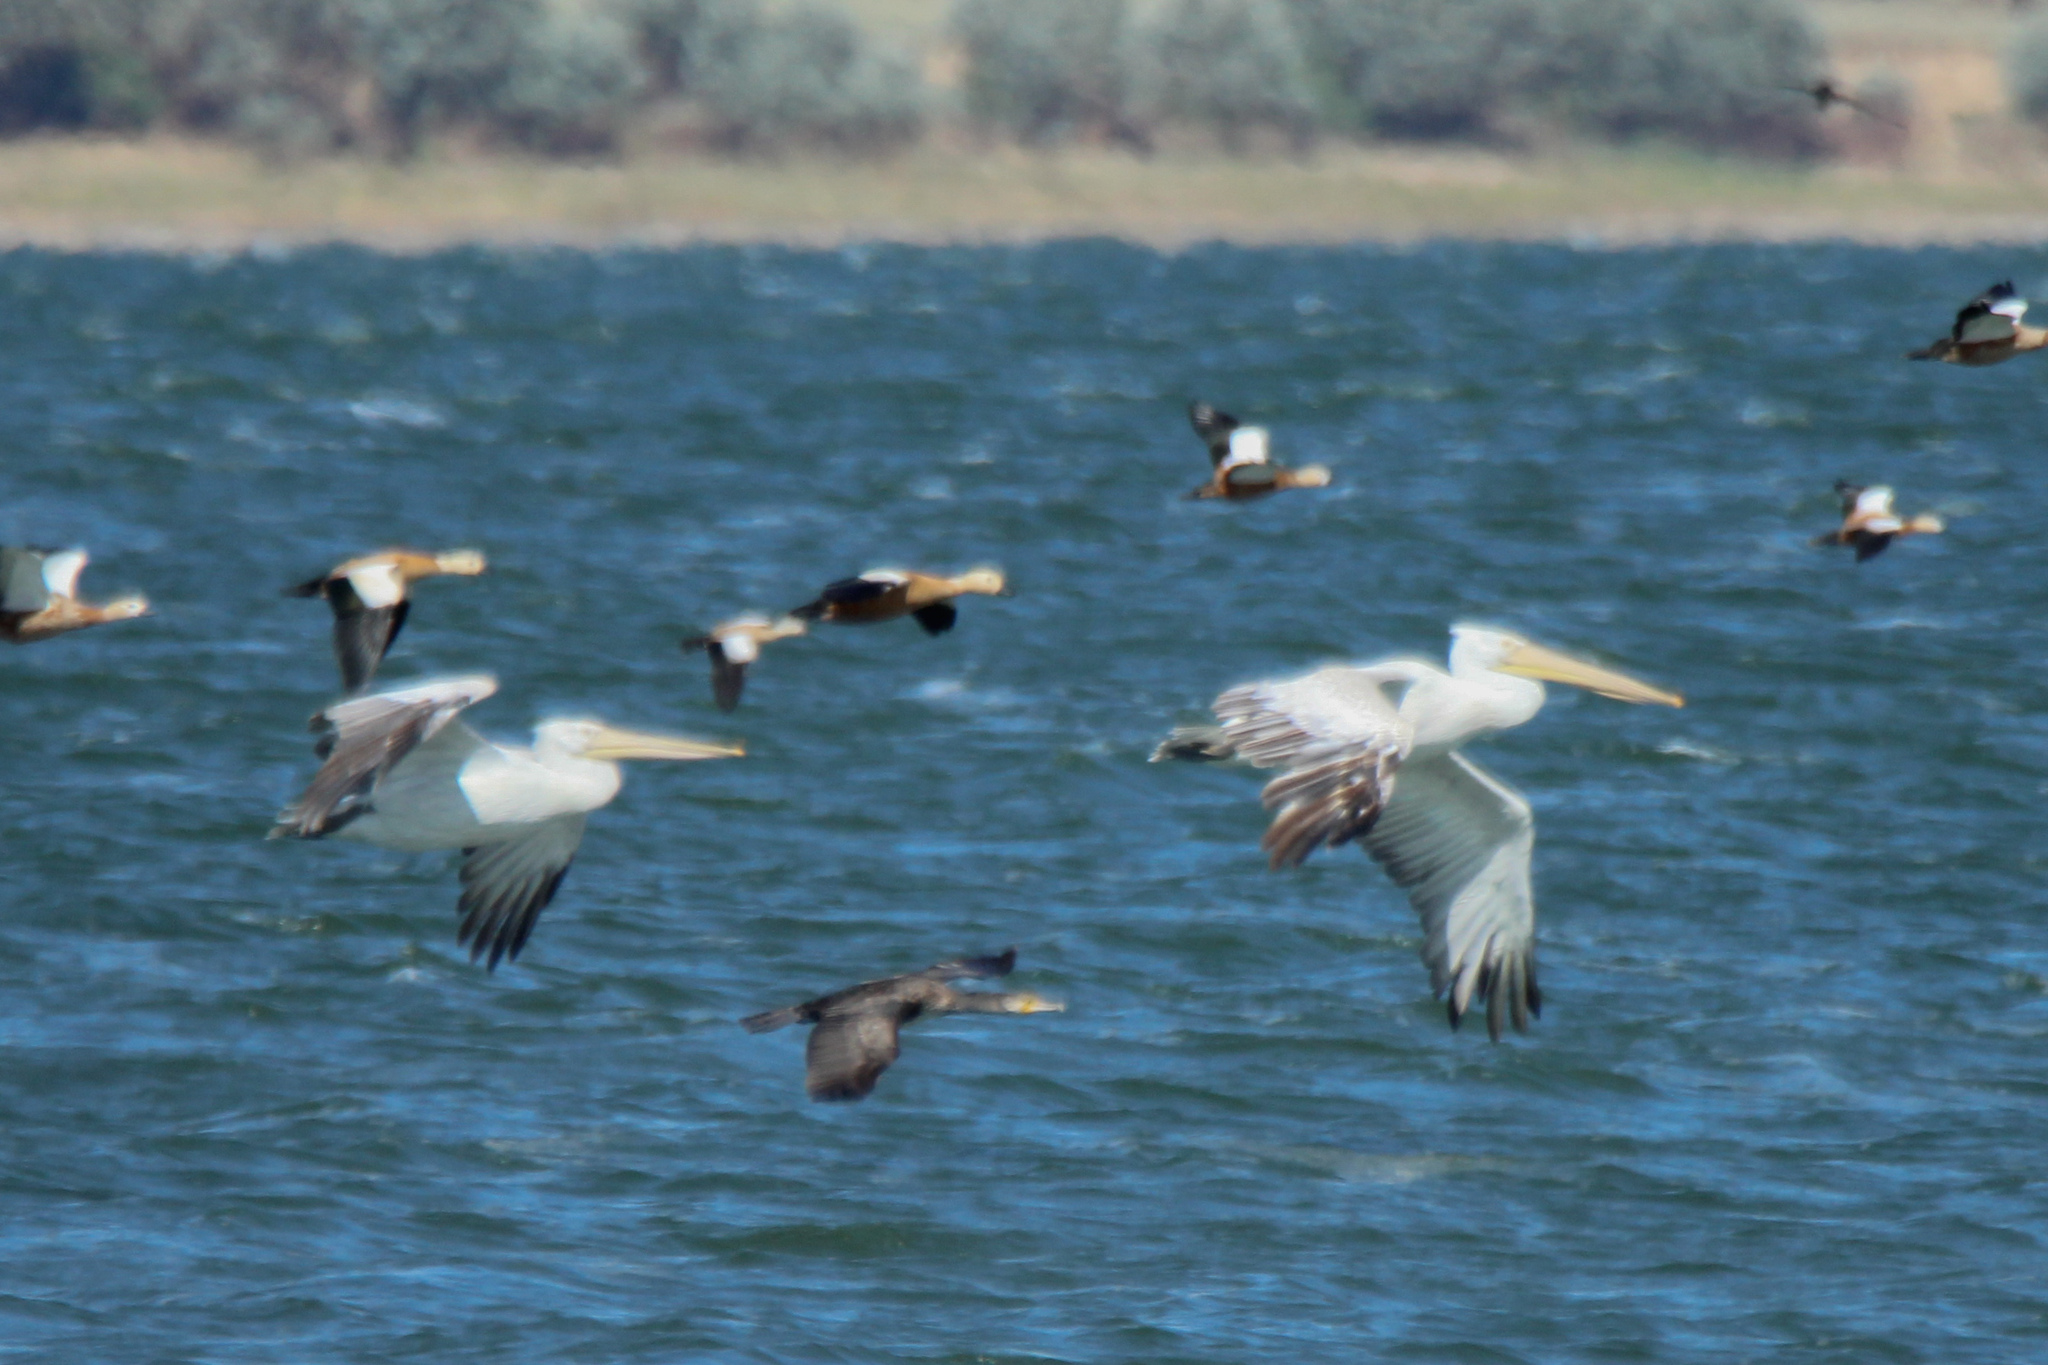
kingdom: Animalia
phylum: Chordata
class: Aves
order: Pelecaniformes
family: Pelecanidae
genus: Pelecanus
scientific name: Pelecanus crispus
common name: Dalmatian pelican
